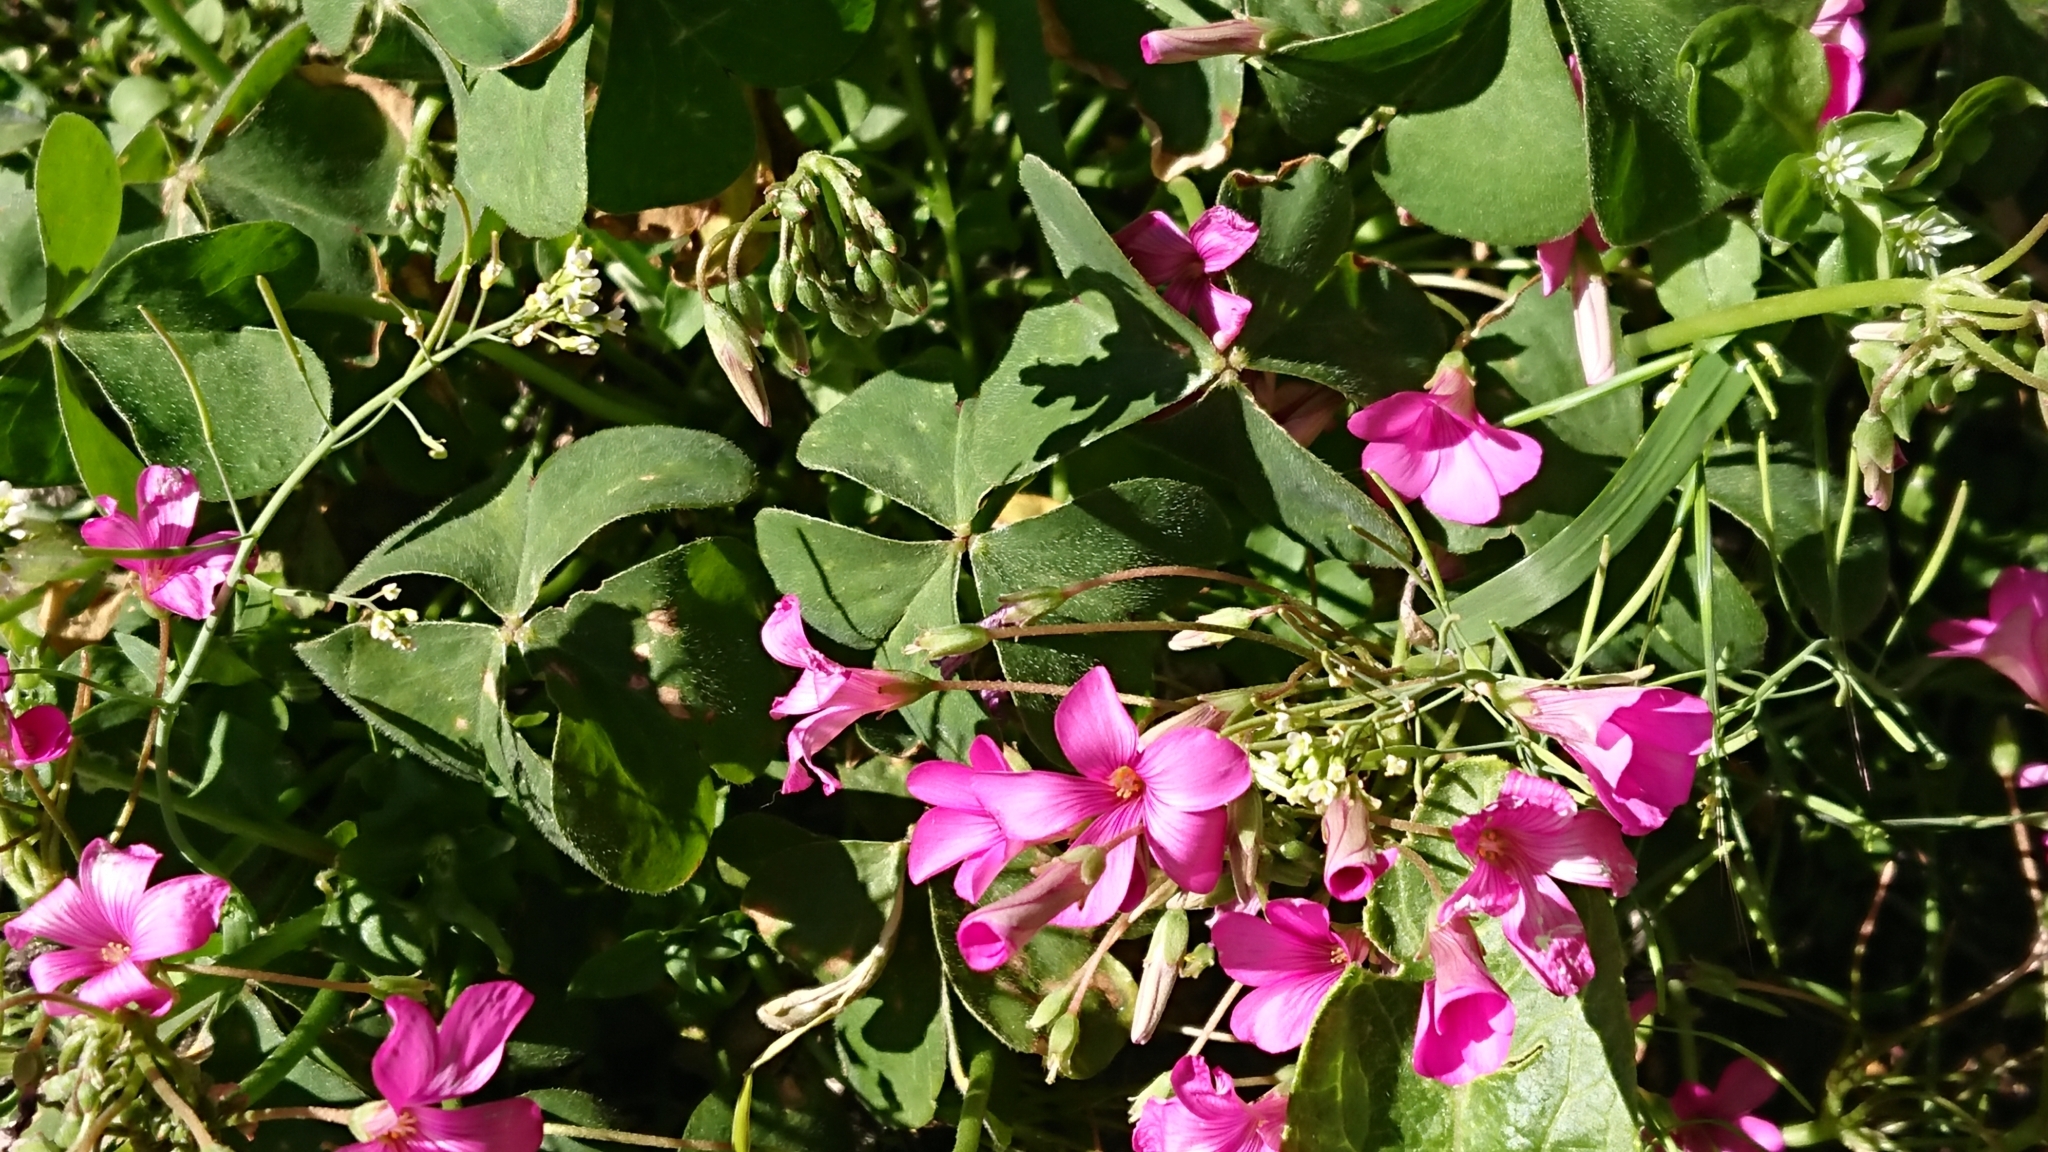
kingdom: Plantae
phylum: Tracheophyta
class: Magnoliopsida
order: Oxalidales
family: Oxalidaceae
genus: Oxalis
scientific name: Oxalis articulata
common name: Pink-sorrel
